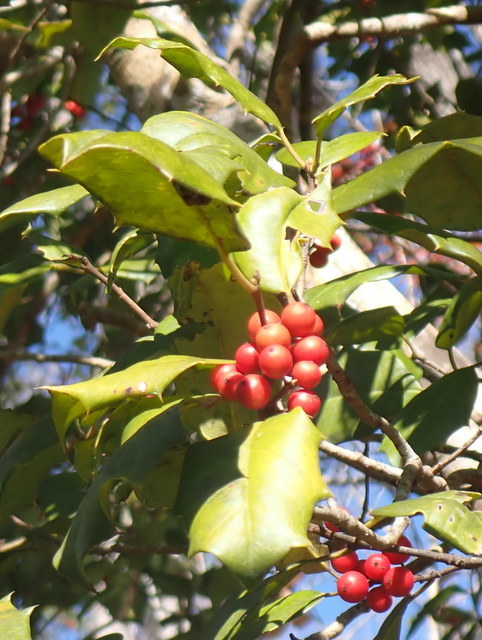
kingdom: Plantae
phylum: Tracheophyta
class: Magnoliopsida
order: Aquifoliales
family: Aquifoliaceae
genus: Ilex
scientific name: Ilex opaca
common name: American holly
